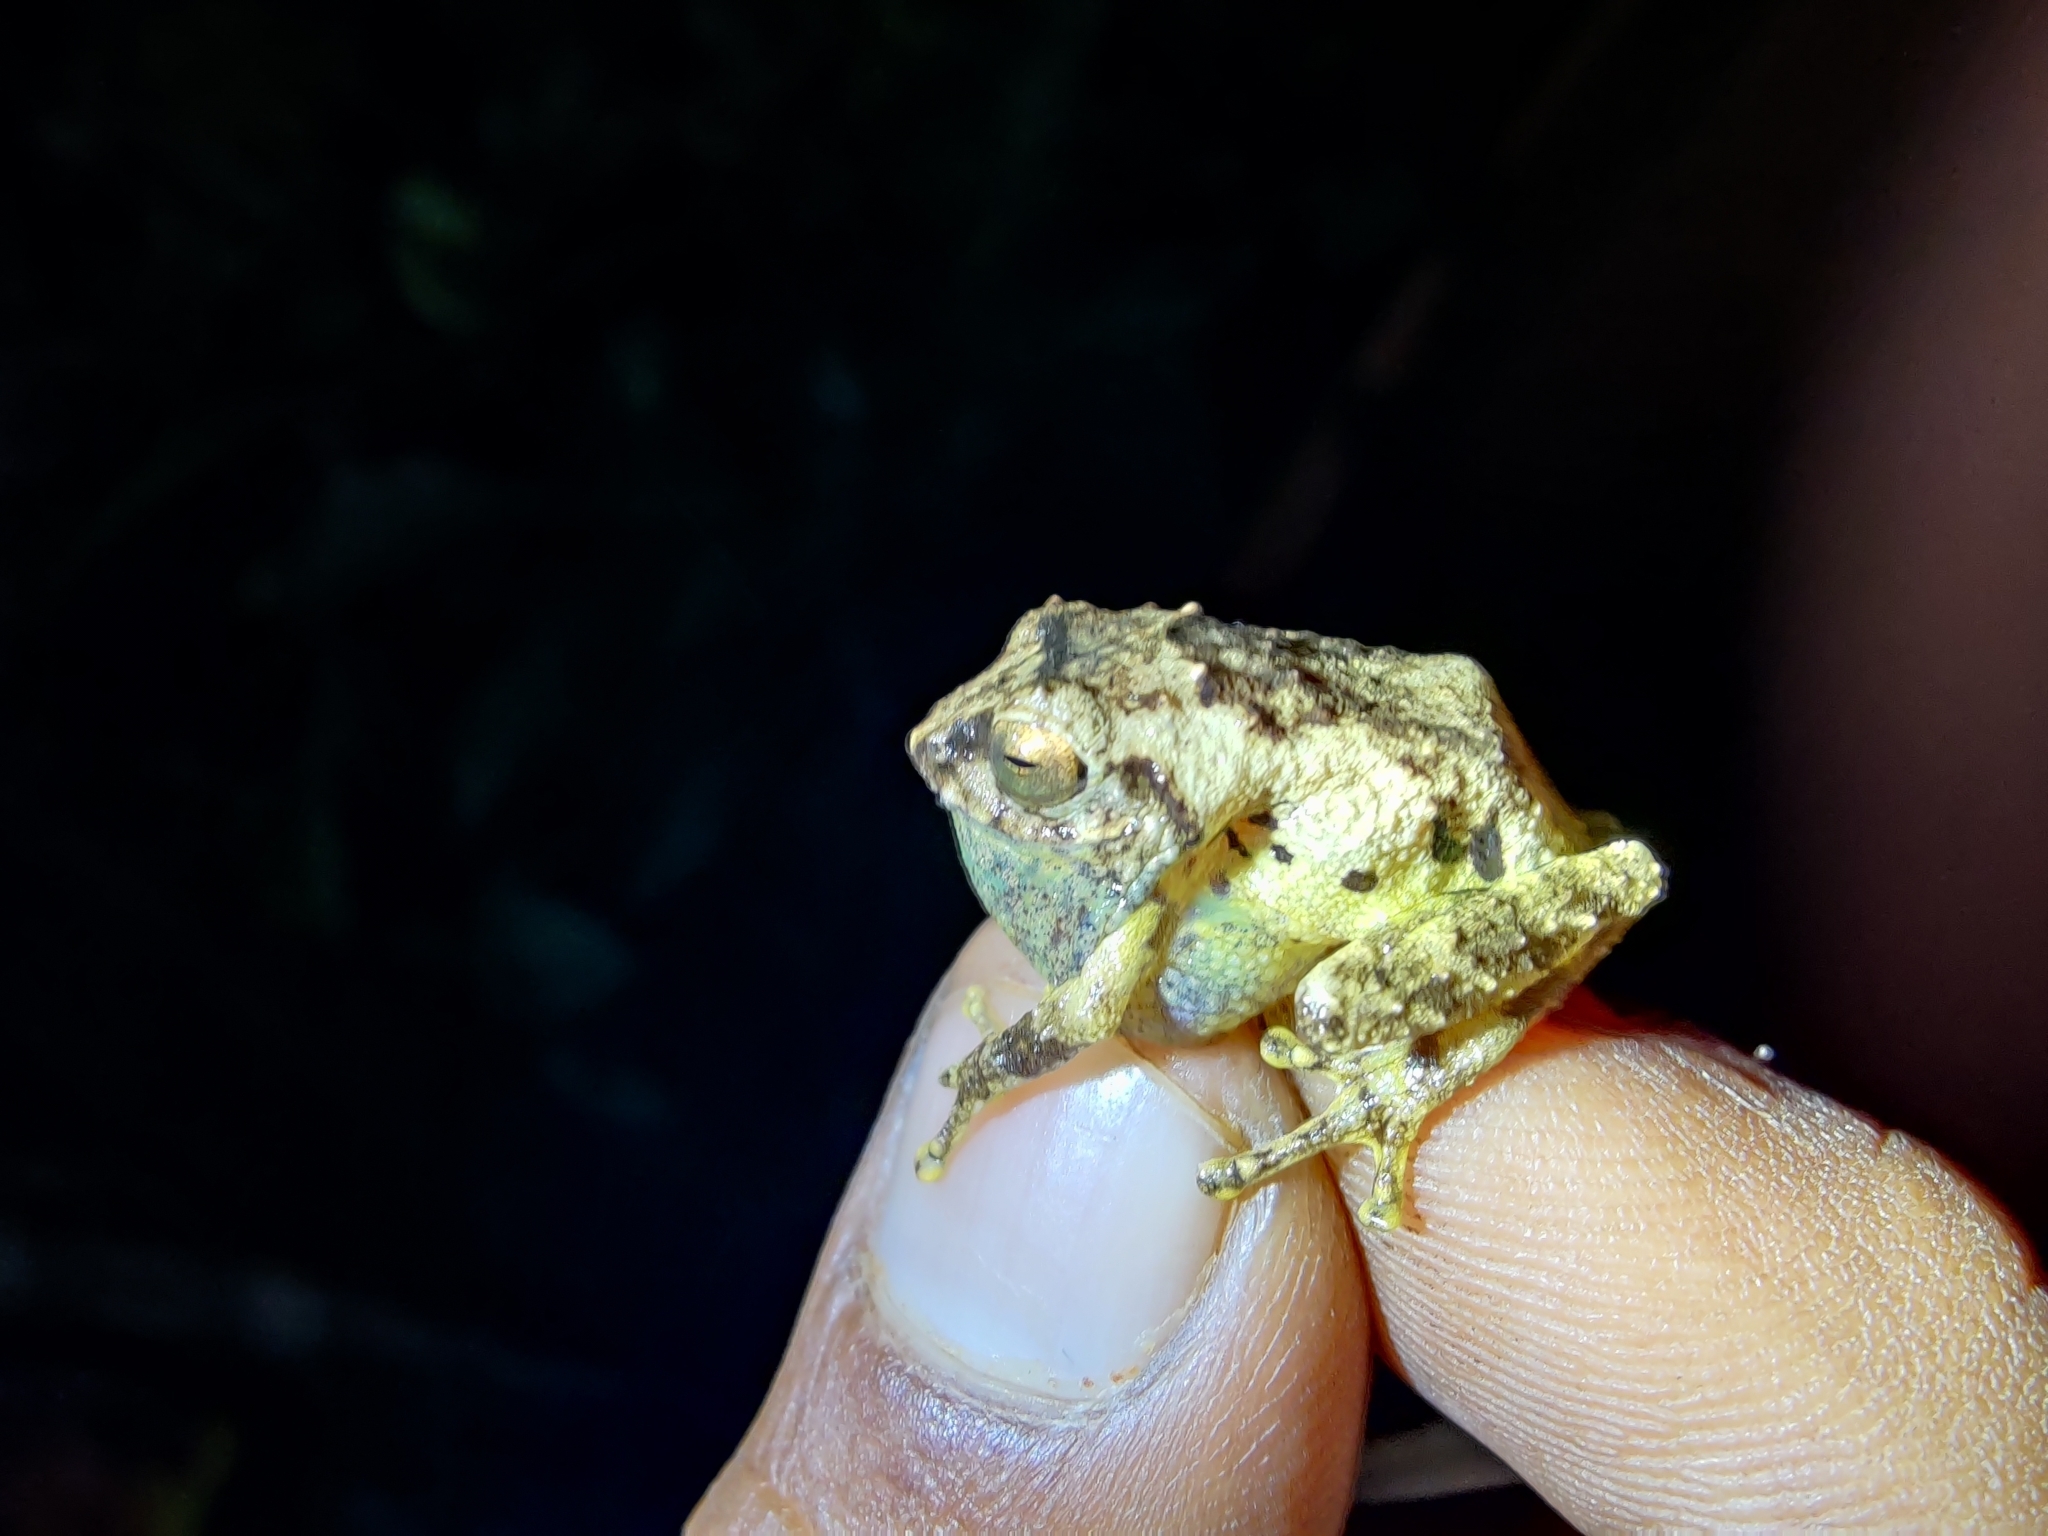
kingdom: Animalia
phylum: Chordata
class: Amphibia
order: Anura
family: Rhacophoridae
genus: Raorchestes
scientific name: Raorchestes anili
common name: Anil's bush frog
